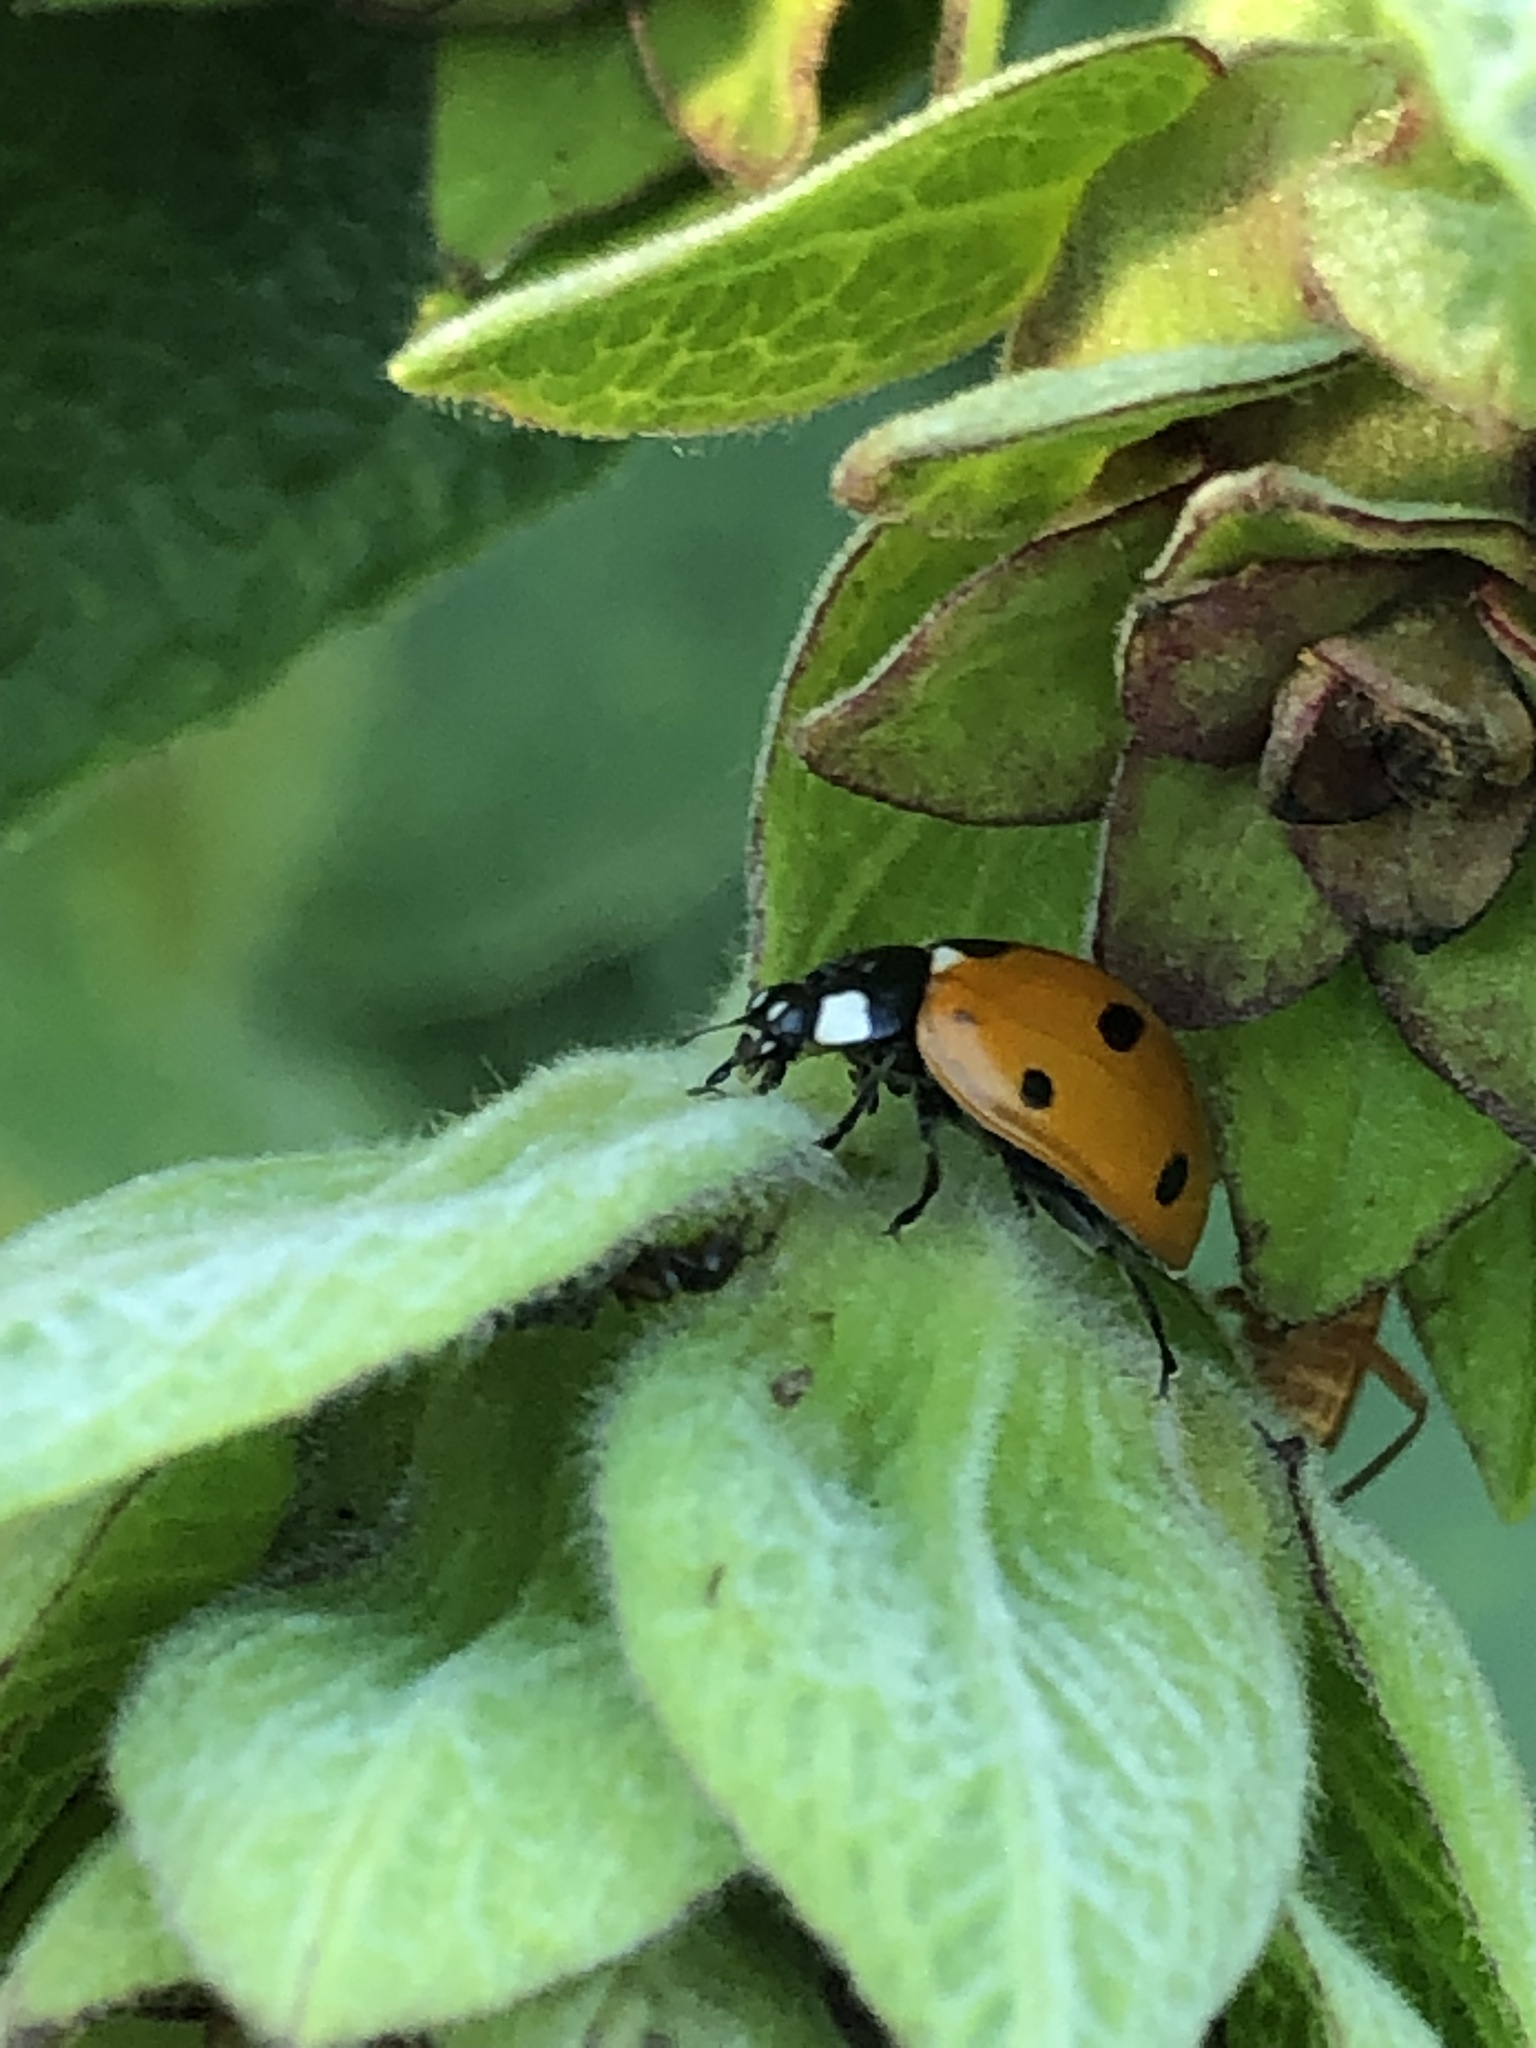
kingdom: Animalia
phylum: Arthropoda
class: Insecta
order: Coleoptera
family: Coccinellidae
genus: Coccinella
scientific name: Coccinella septempunctata
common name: Sevenspotted lady beetle
